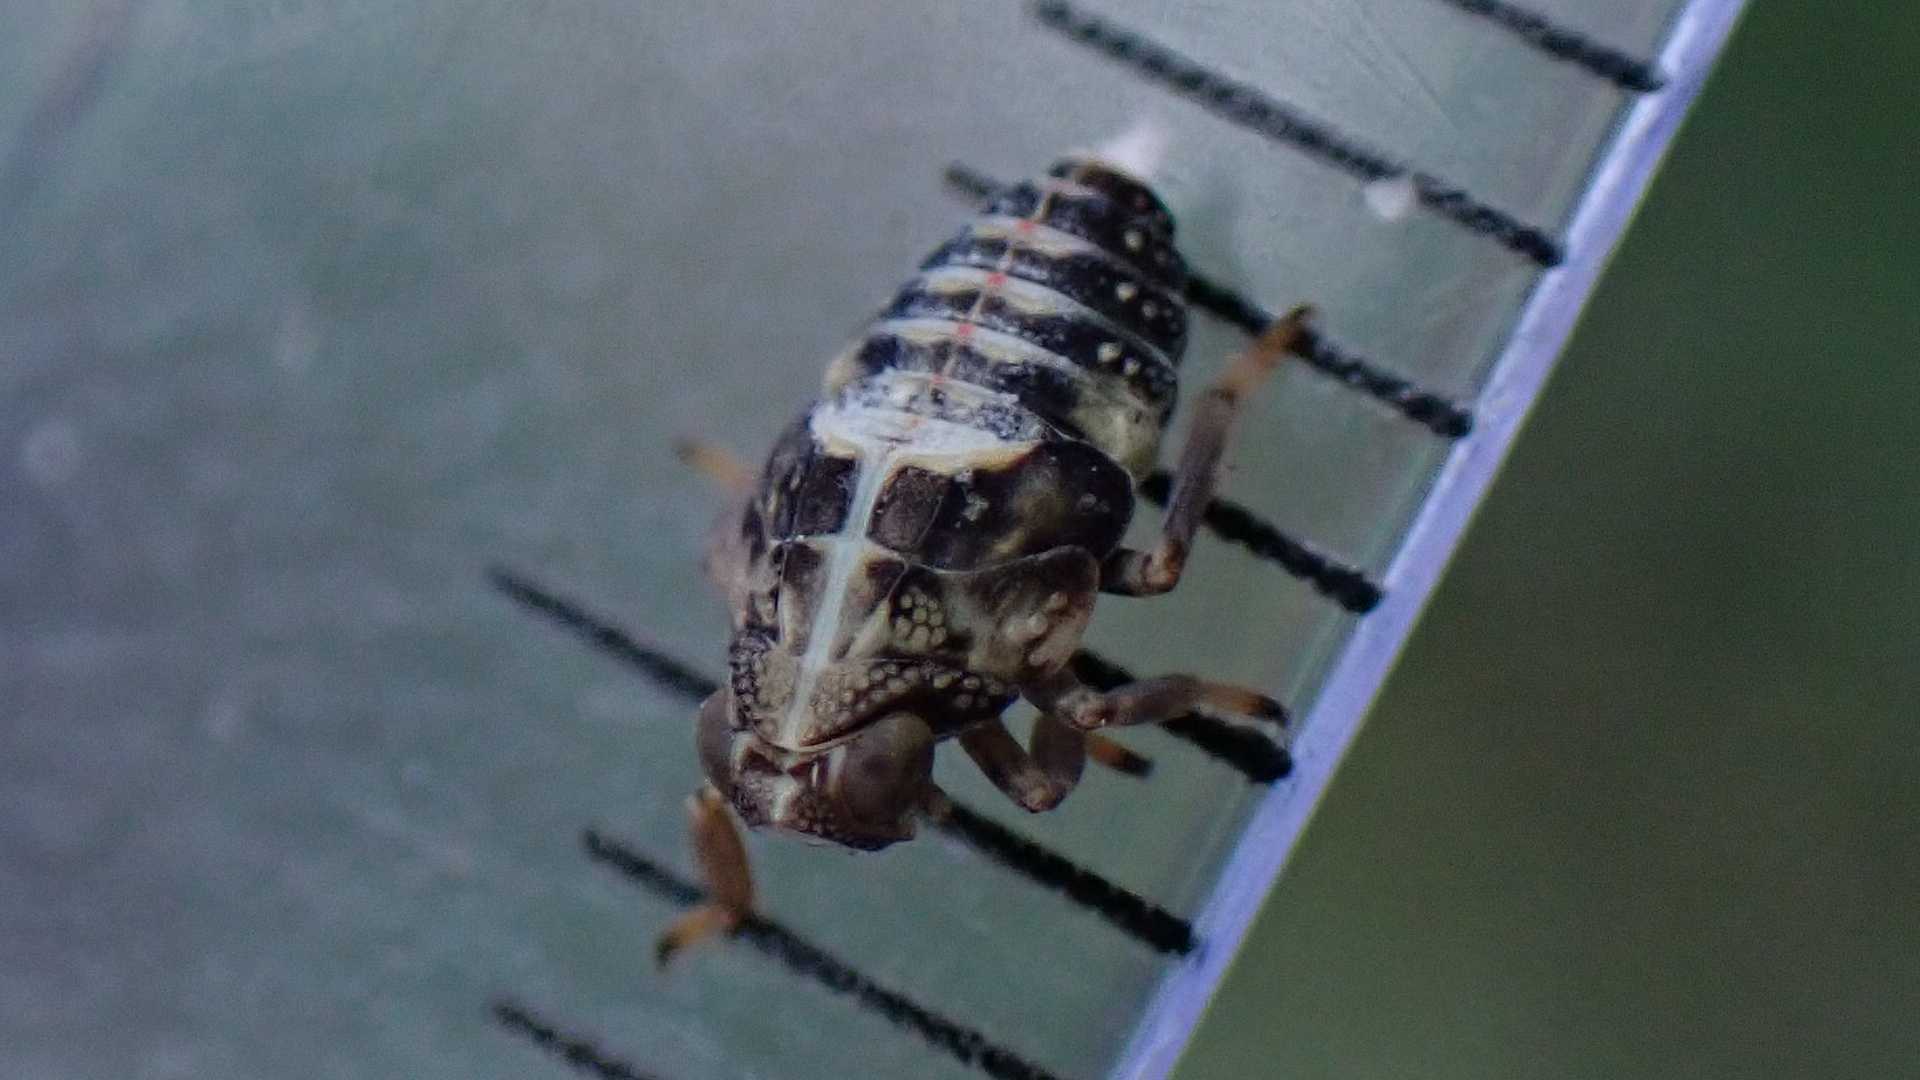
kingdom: Animalia
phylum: Arthropoda
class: Insecta
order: Hemiptera
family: Issidae
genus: Issus
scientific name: Issus coleoptratus
